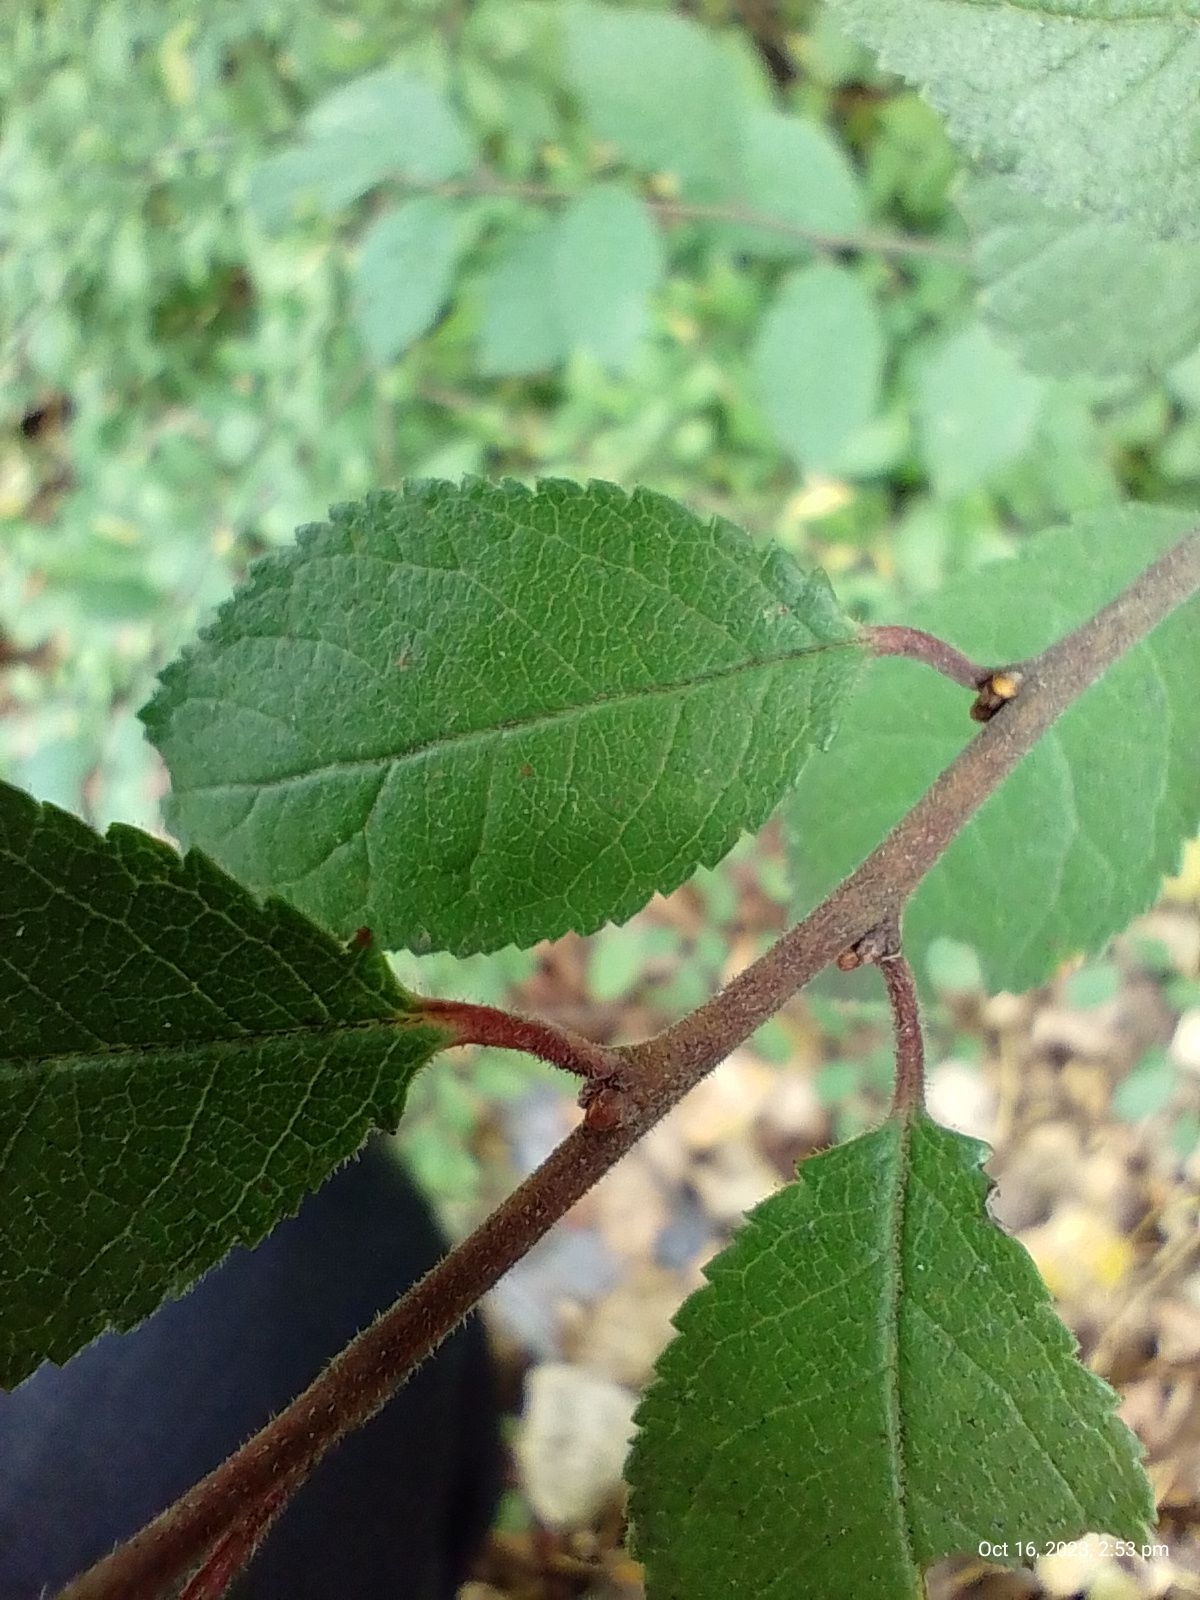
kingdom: Plantae
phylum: Tracheophyta
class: Magnoliopsida
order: Rosales
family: Rosaceae
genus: Prunus
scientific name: Prunus spinosa
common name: Blackthorn
